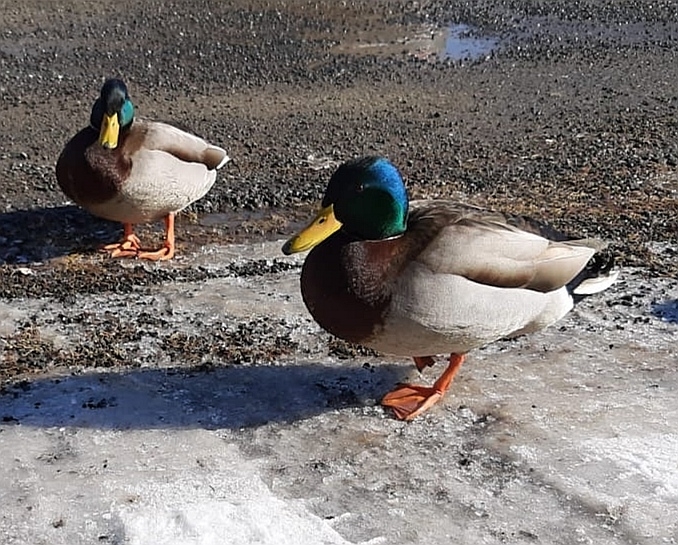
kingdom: Animalia
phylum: Chordata
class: Aves
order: Anseriformes
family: Anatidae
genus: Anas
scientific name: Anas platyrhynchos
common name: Mallard
